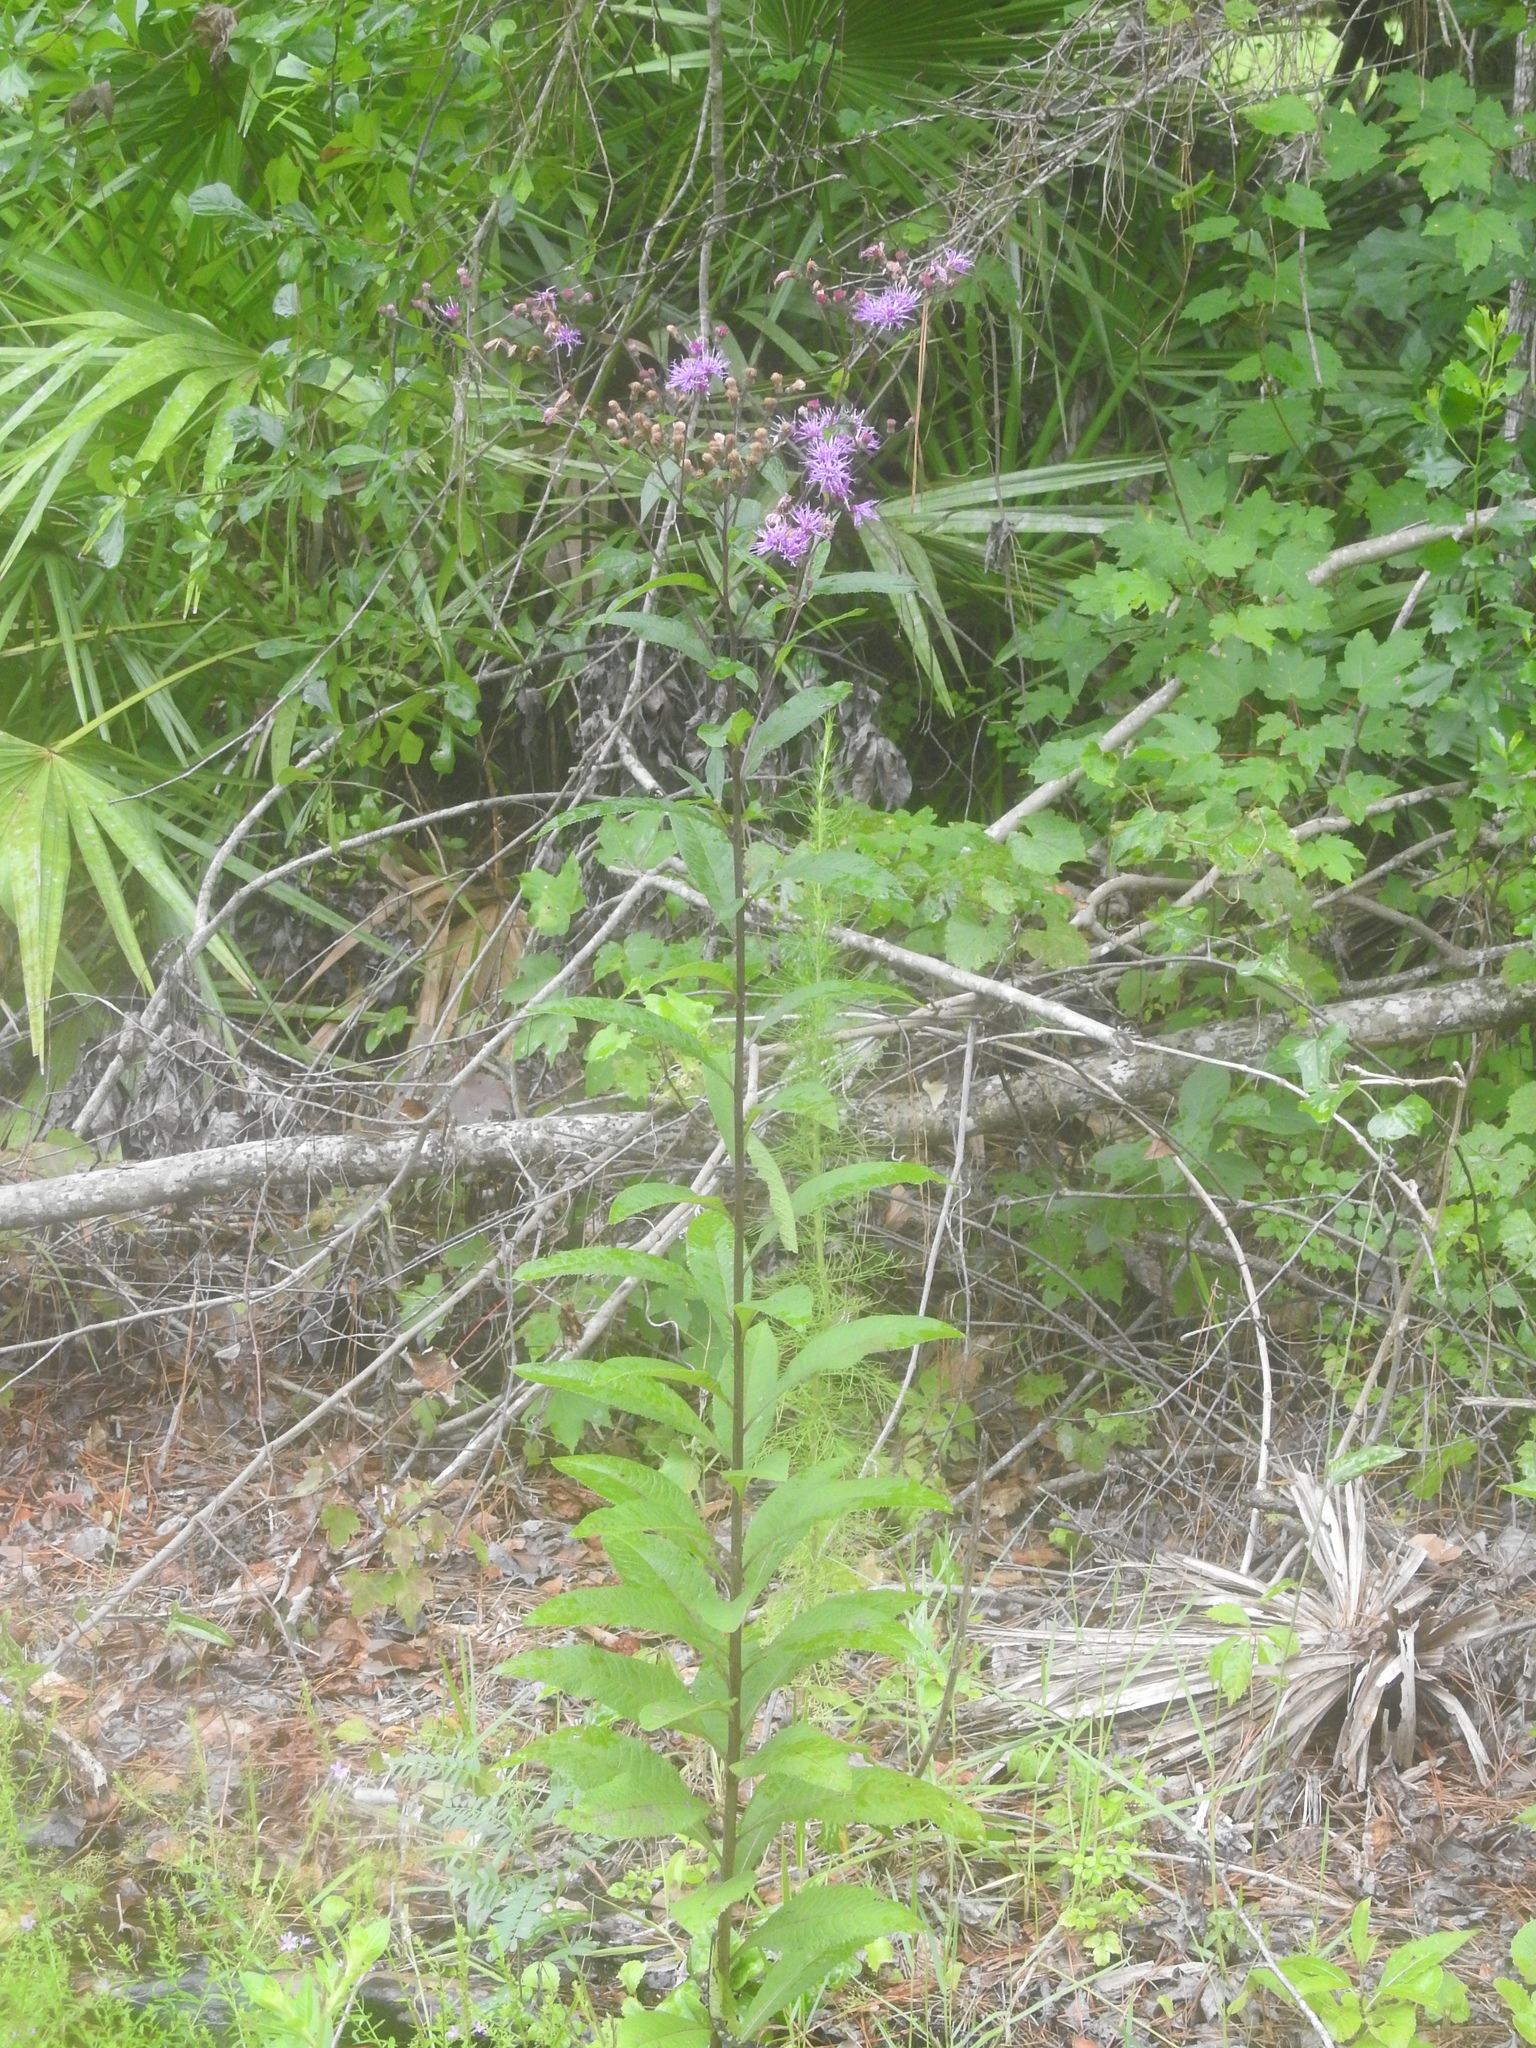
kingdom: Plantae
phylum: Tracheophyta
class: Magnoliopsida
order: Asterales
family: Asteraceae
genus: Vernonia
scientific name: Vernonia gigantea
